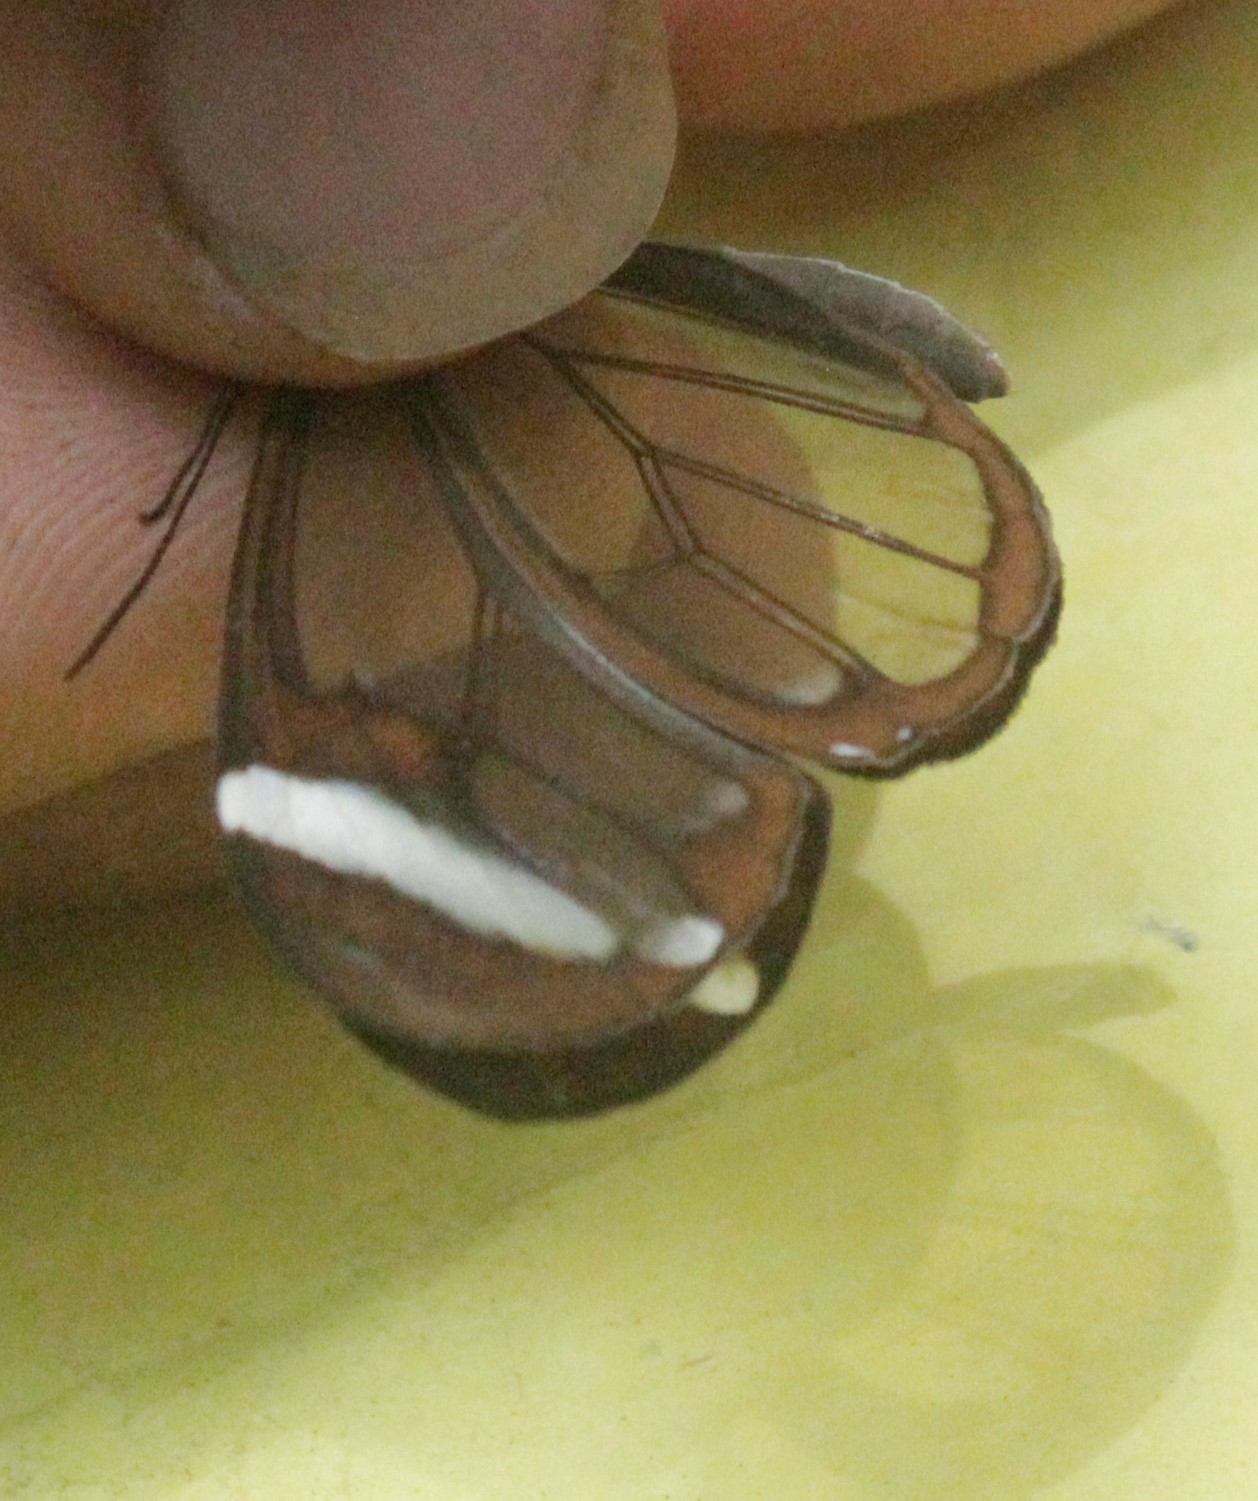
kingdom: Animalia
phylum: Arthropoda
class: Insecta
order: Lepidoptera
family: Nymphalidae
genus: Greta
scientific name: Greta morgane
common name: Thick-tipped greta
